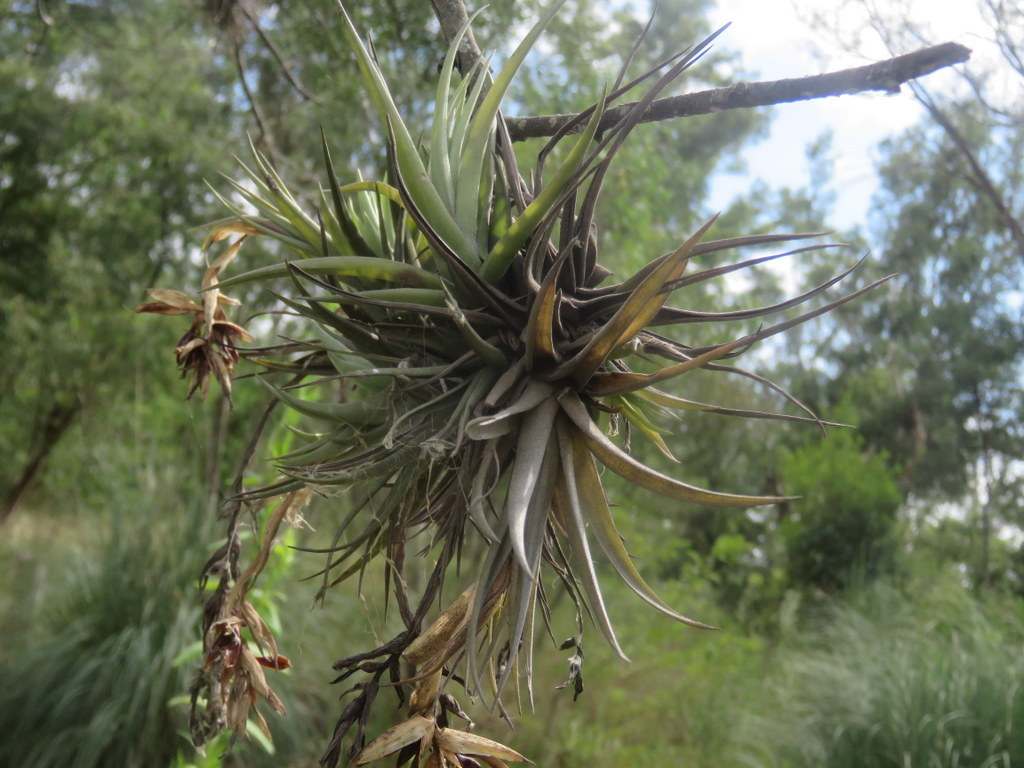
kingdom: Plantae
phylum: Tracheophyta
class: Liliopsida
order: Poales
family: Bromeliaceae
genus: Tillandsia
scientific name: Tillandsia aeranthos
